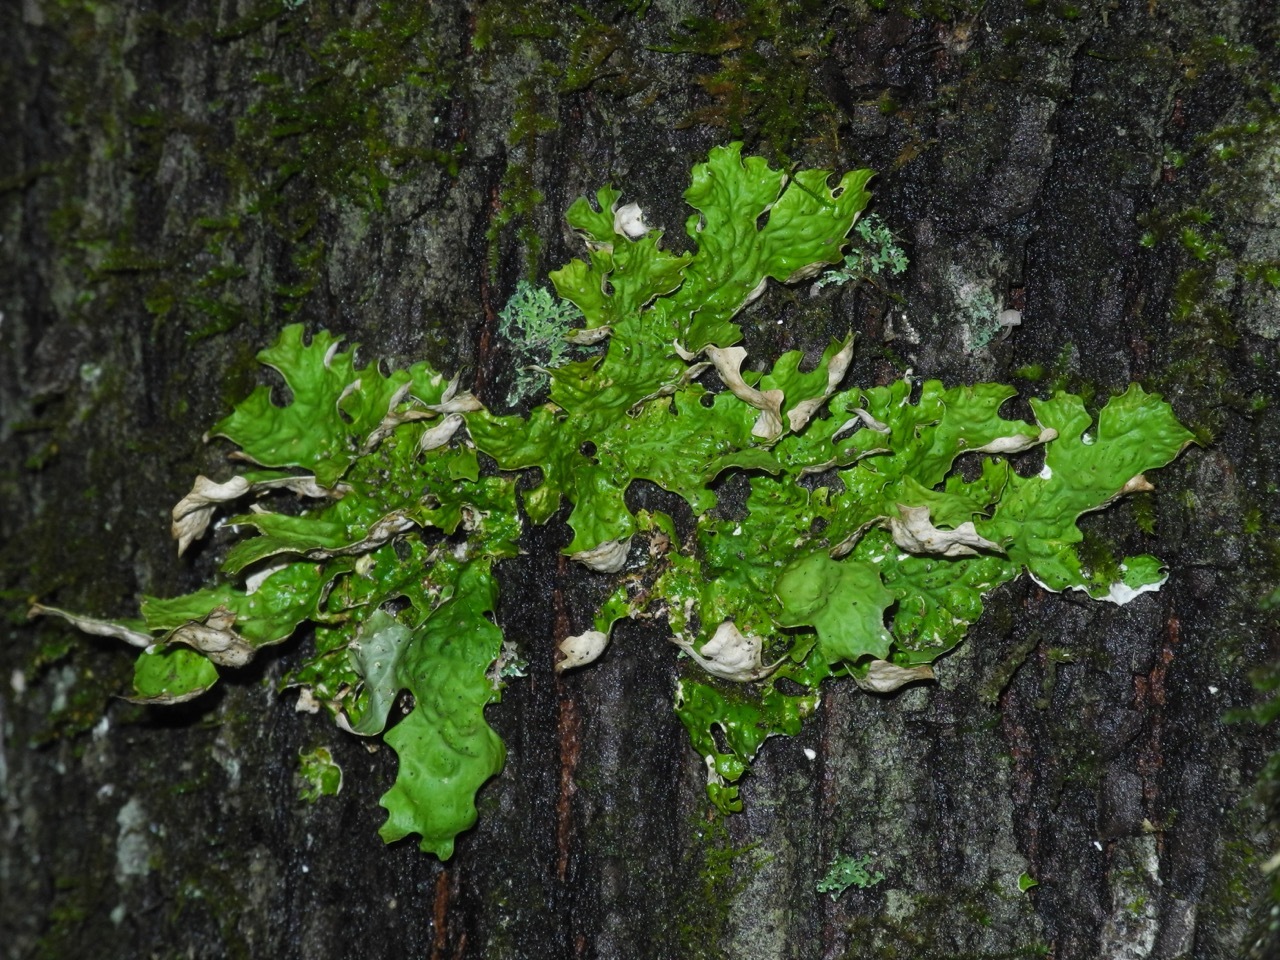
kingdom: Fungi
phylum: Ascomycota
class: Lecanoromycetes
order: Peltigerales
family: Lobariaceae
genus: Lobaria
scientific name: Lobaria pulmonaria
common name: Lungwort
